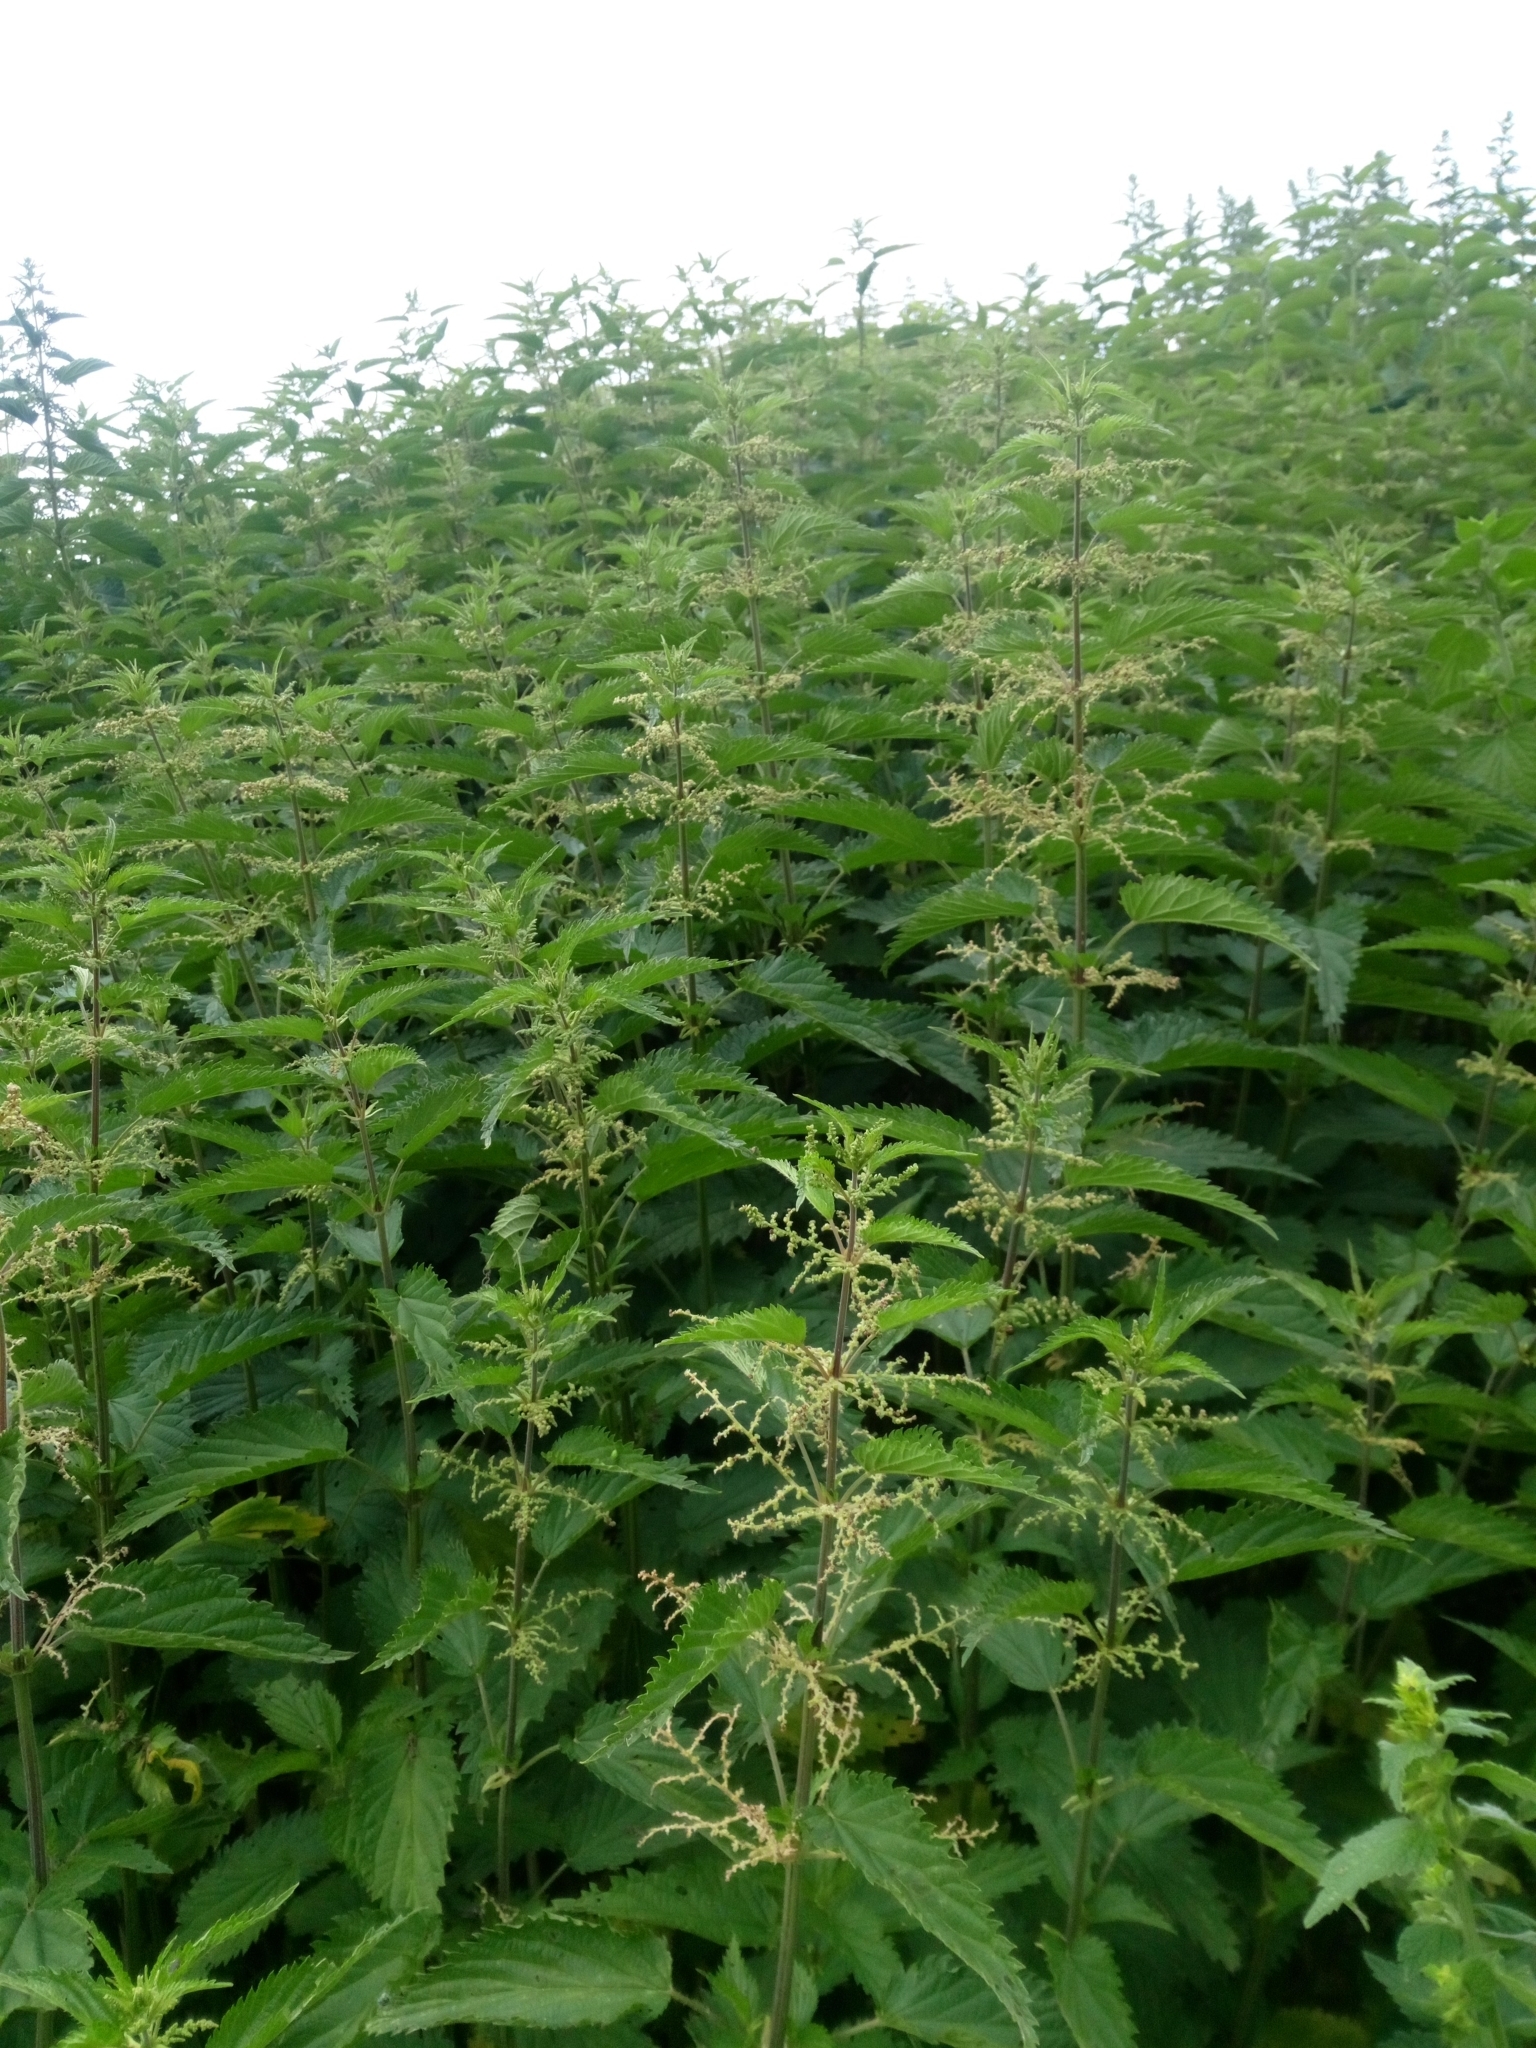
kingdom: Plantae
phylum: Tracheophyta
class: Magnoliopsida
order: Rosales
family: Urticaceae
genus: Urtica
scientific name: Urtica dioica
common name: Common nettle
